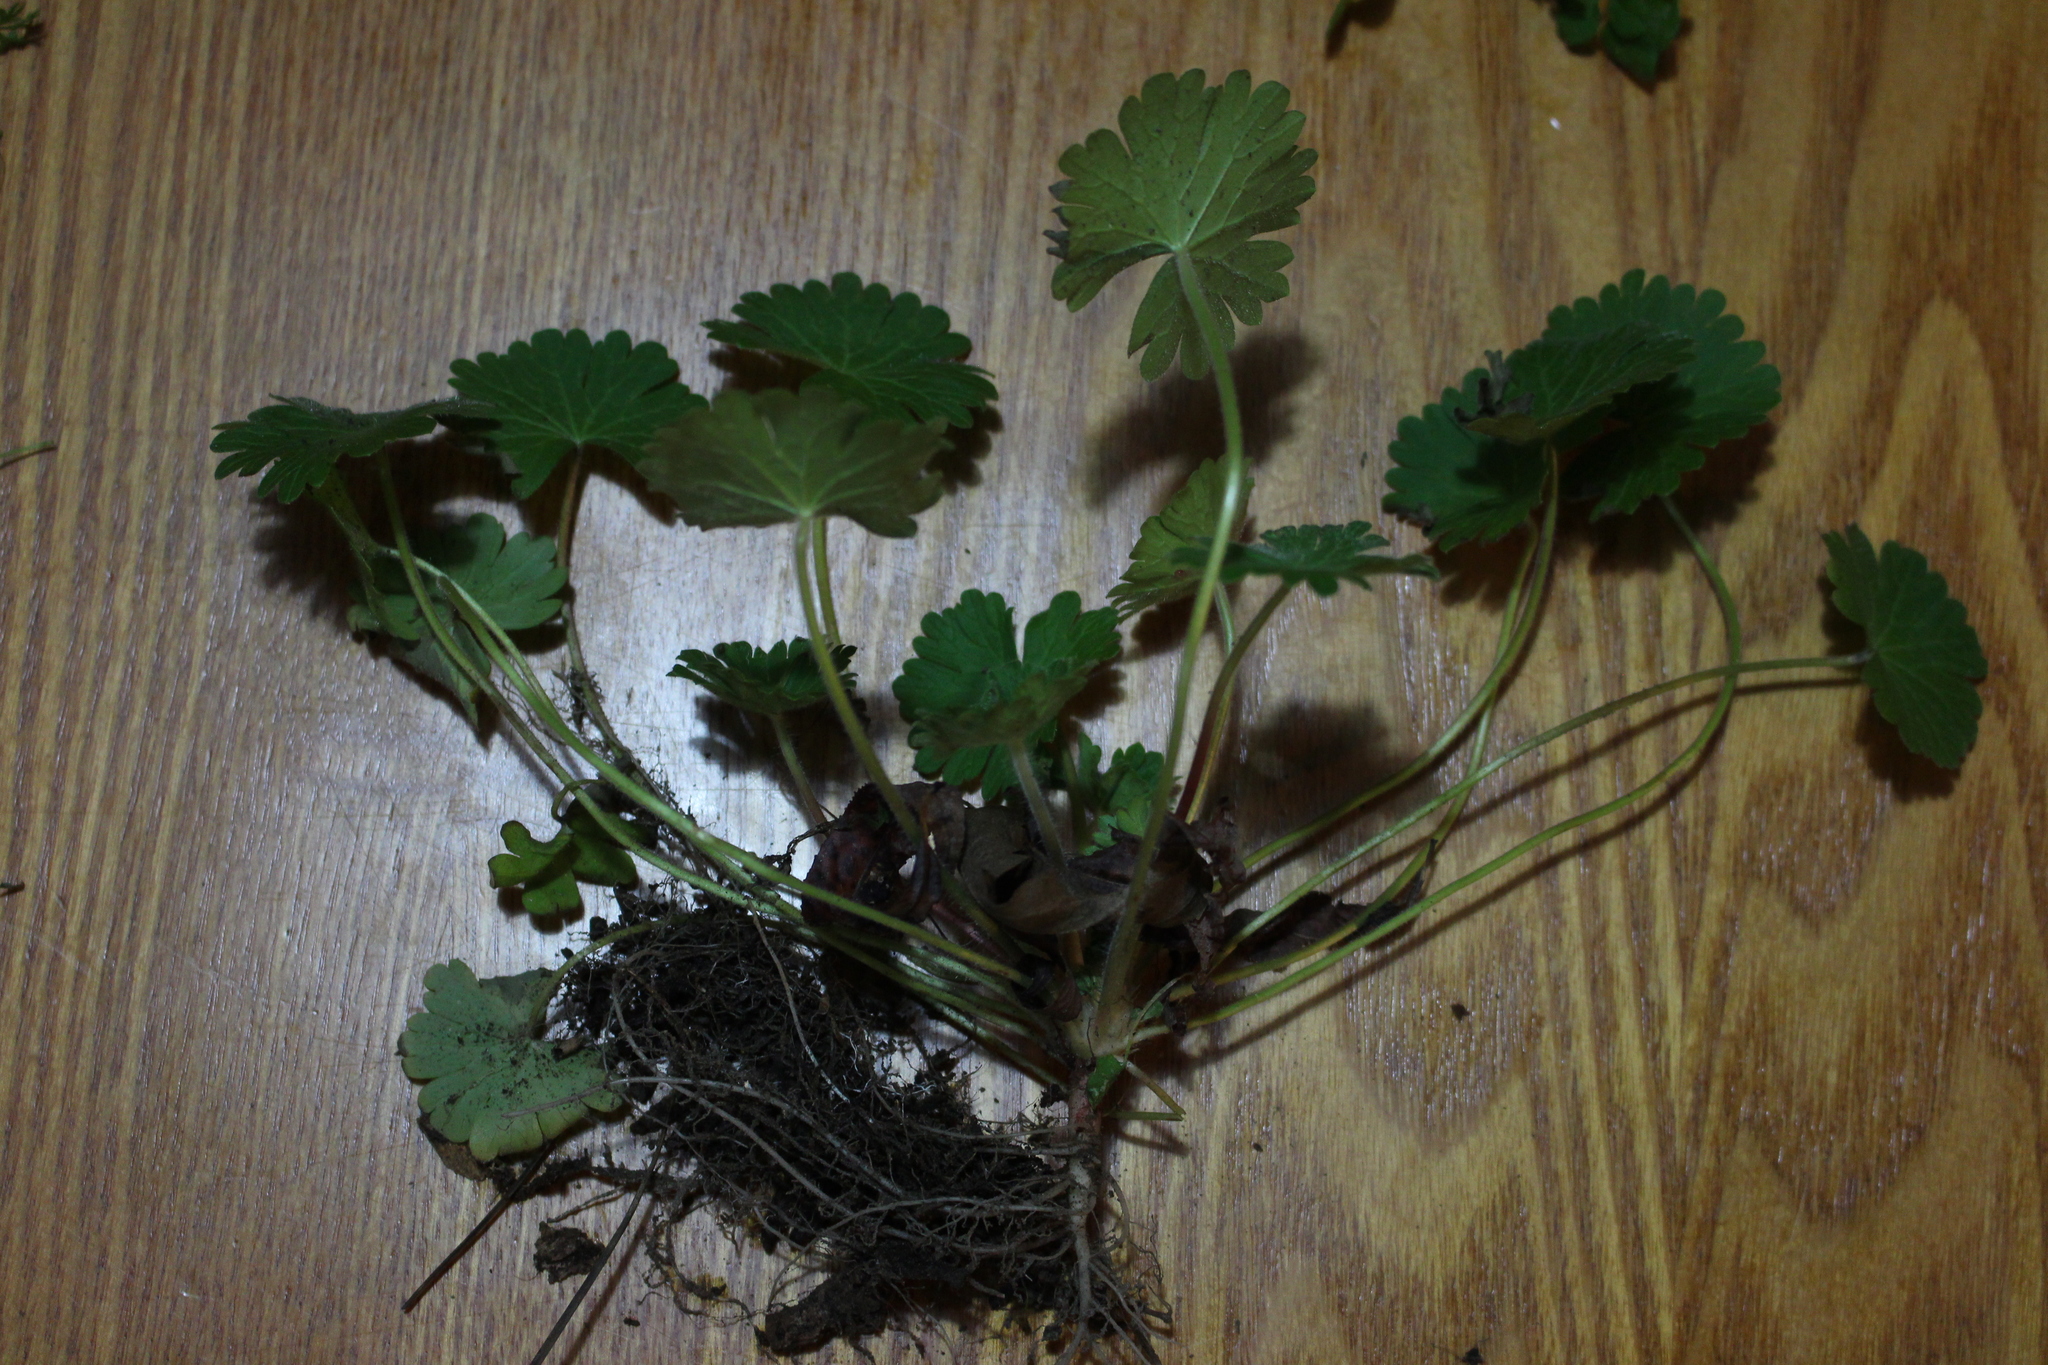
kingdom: Plantae
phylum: Tracheophyta
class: Magnoliopsida
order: Geraniales
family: Geraniaceae
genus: Geranium
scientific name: Geranium molle
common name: Dove's-foot crane's-bill
